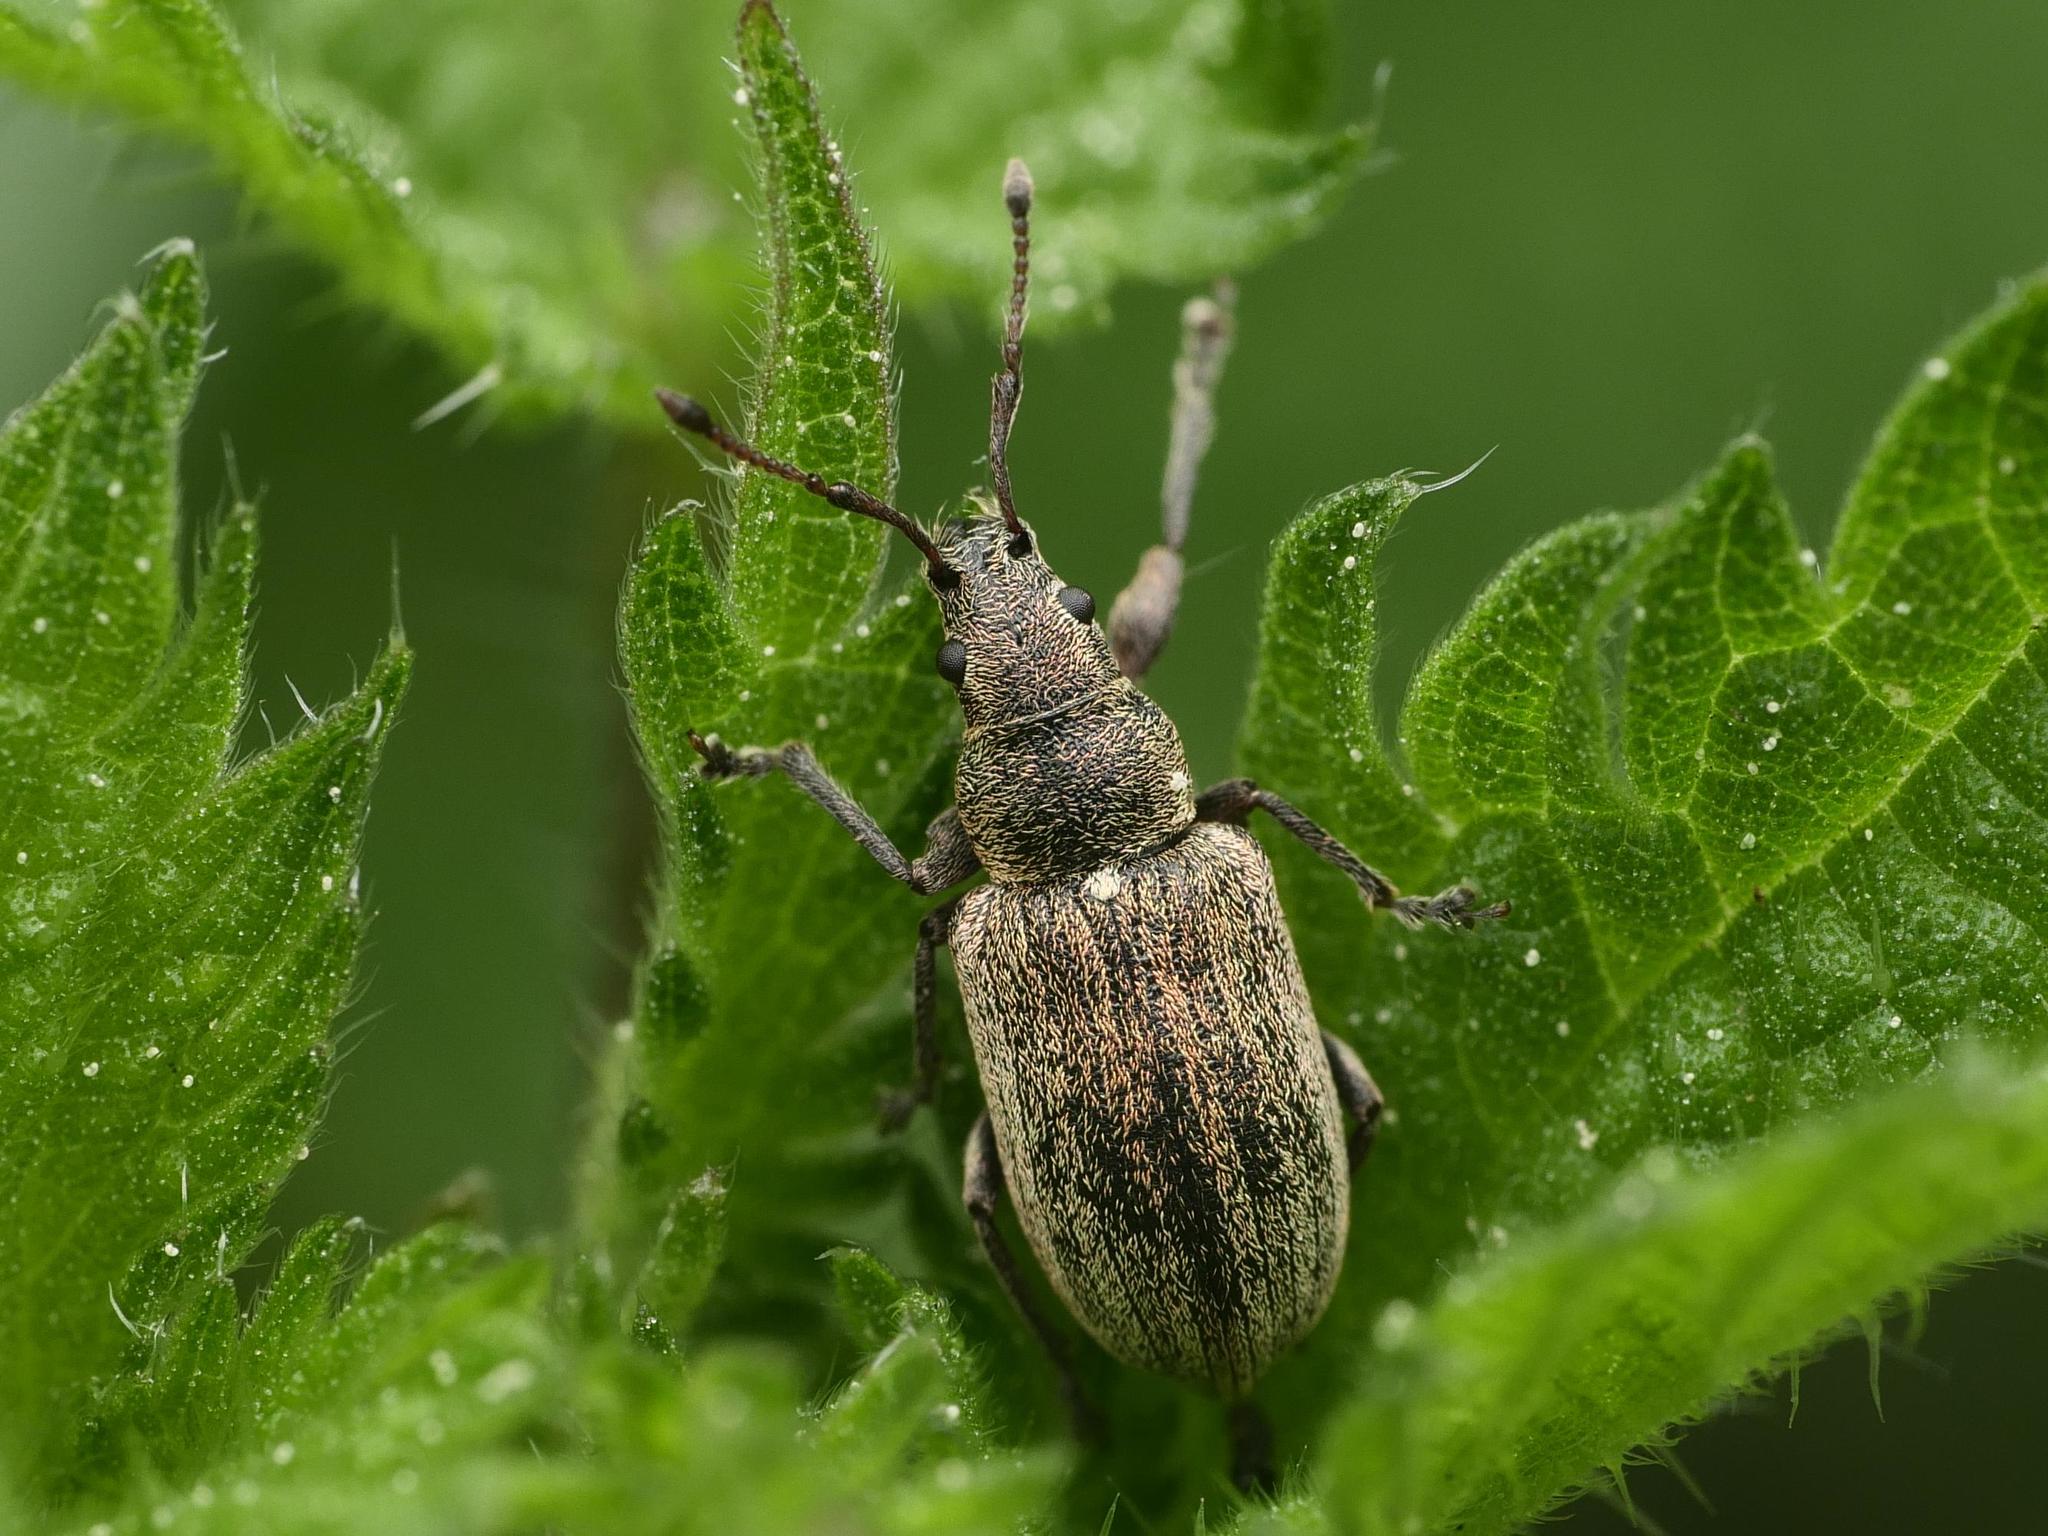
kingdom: Animalia
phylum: Arthropoda
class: Insecta
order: Coleoptera
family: Curculionidae
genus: Phyllobius
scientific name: Phyllobius pyri
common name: Common leaf weevil
